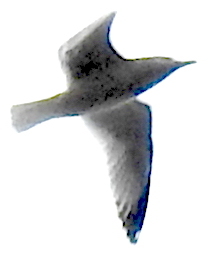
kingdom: Animalia
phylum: Chordata
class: Aves
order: Charadriiformes
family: Laridae
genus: Larus
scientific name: Larus californicus
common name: California gull
